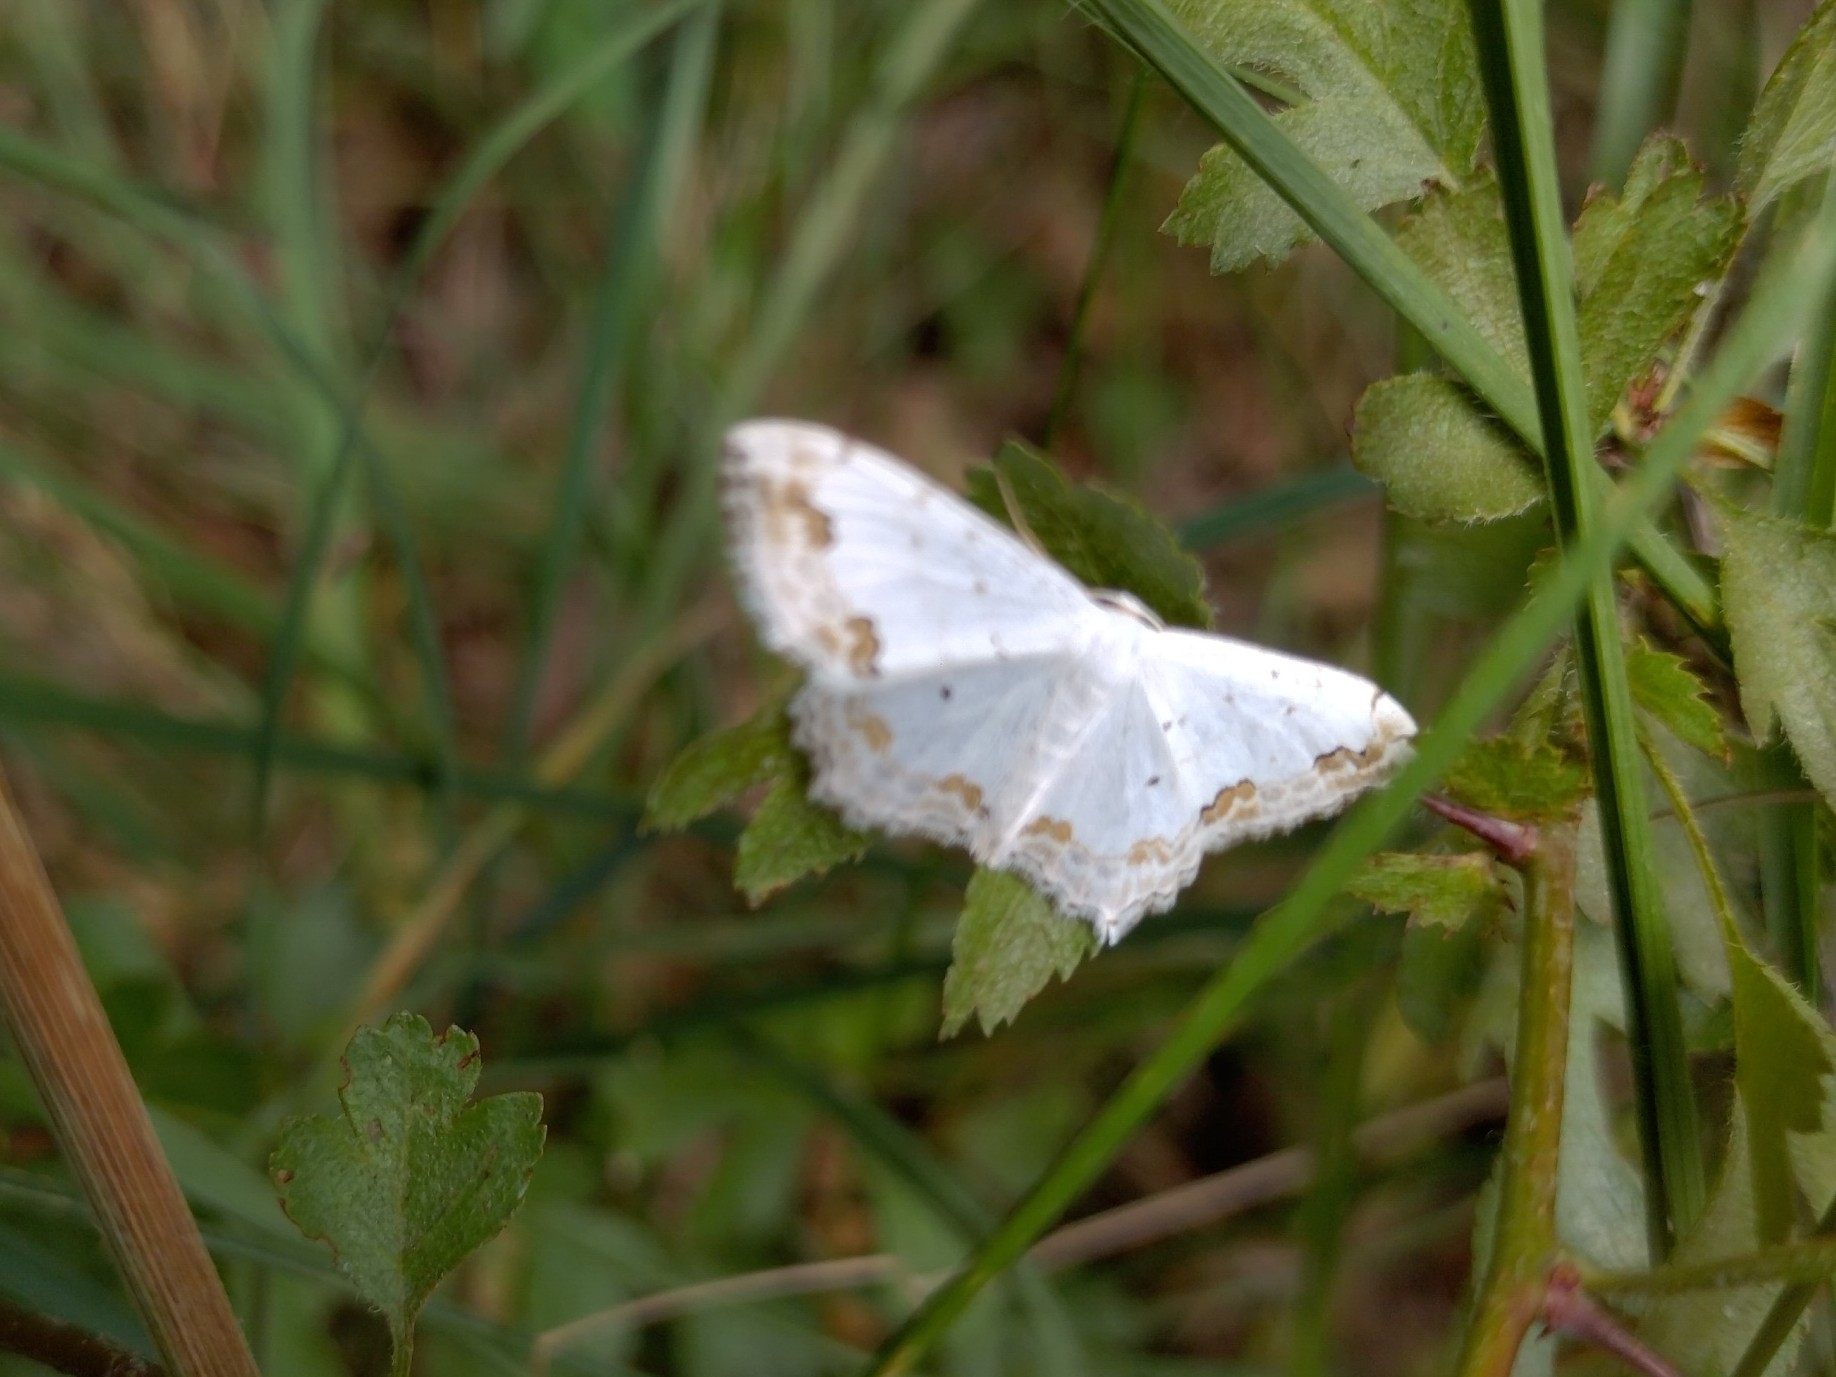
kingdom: Animalia
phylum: Arthropoda
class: Insecta
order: Lepidoptera
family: Geometridae
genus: Scopula
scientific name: Scopula ornata
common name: Lace border
